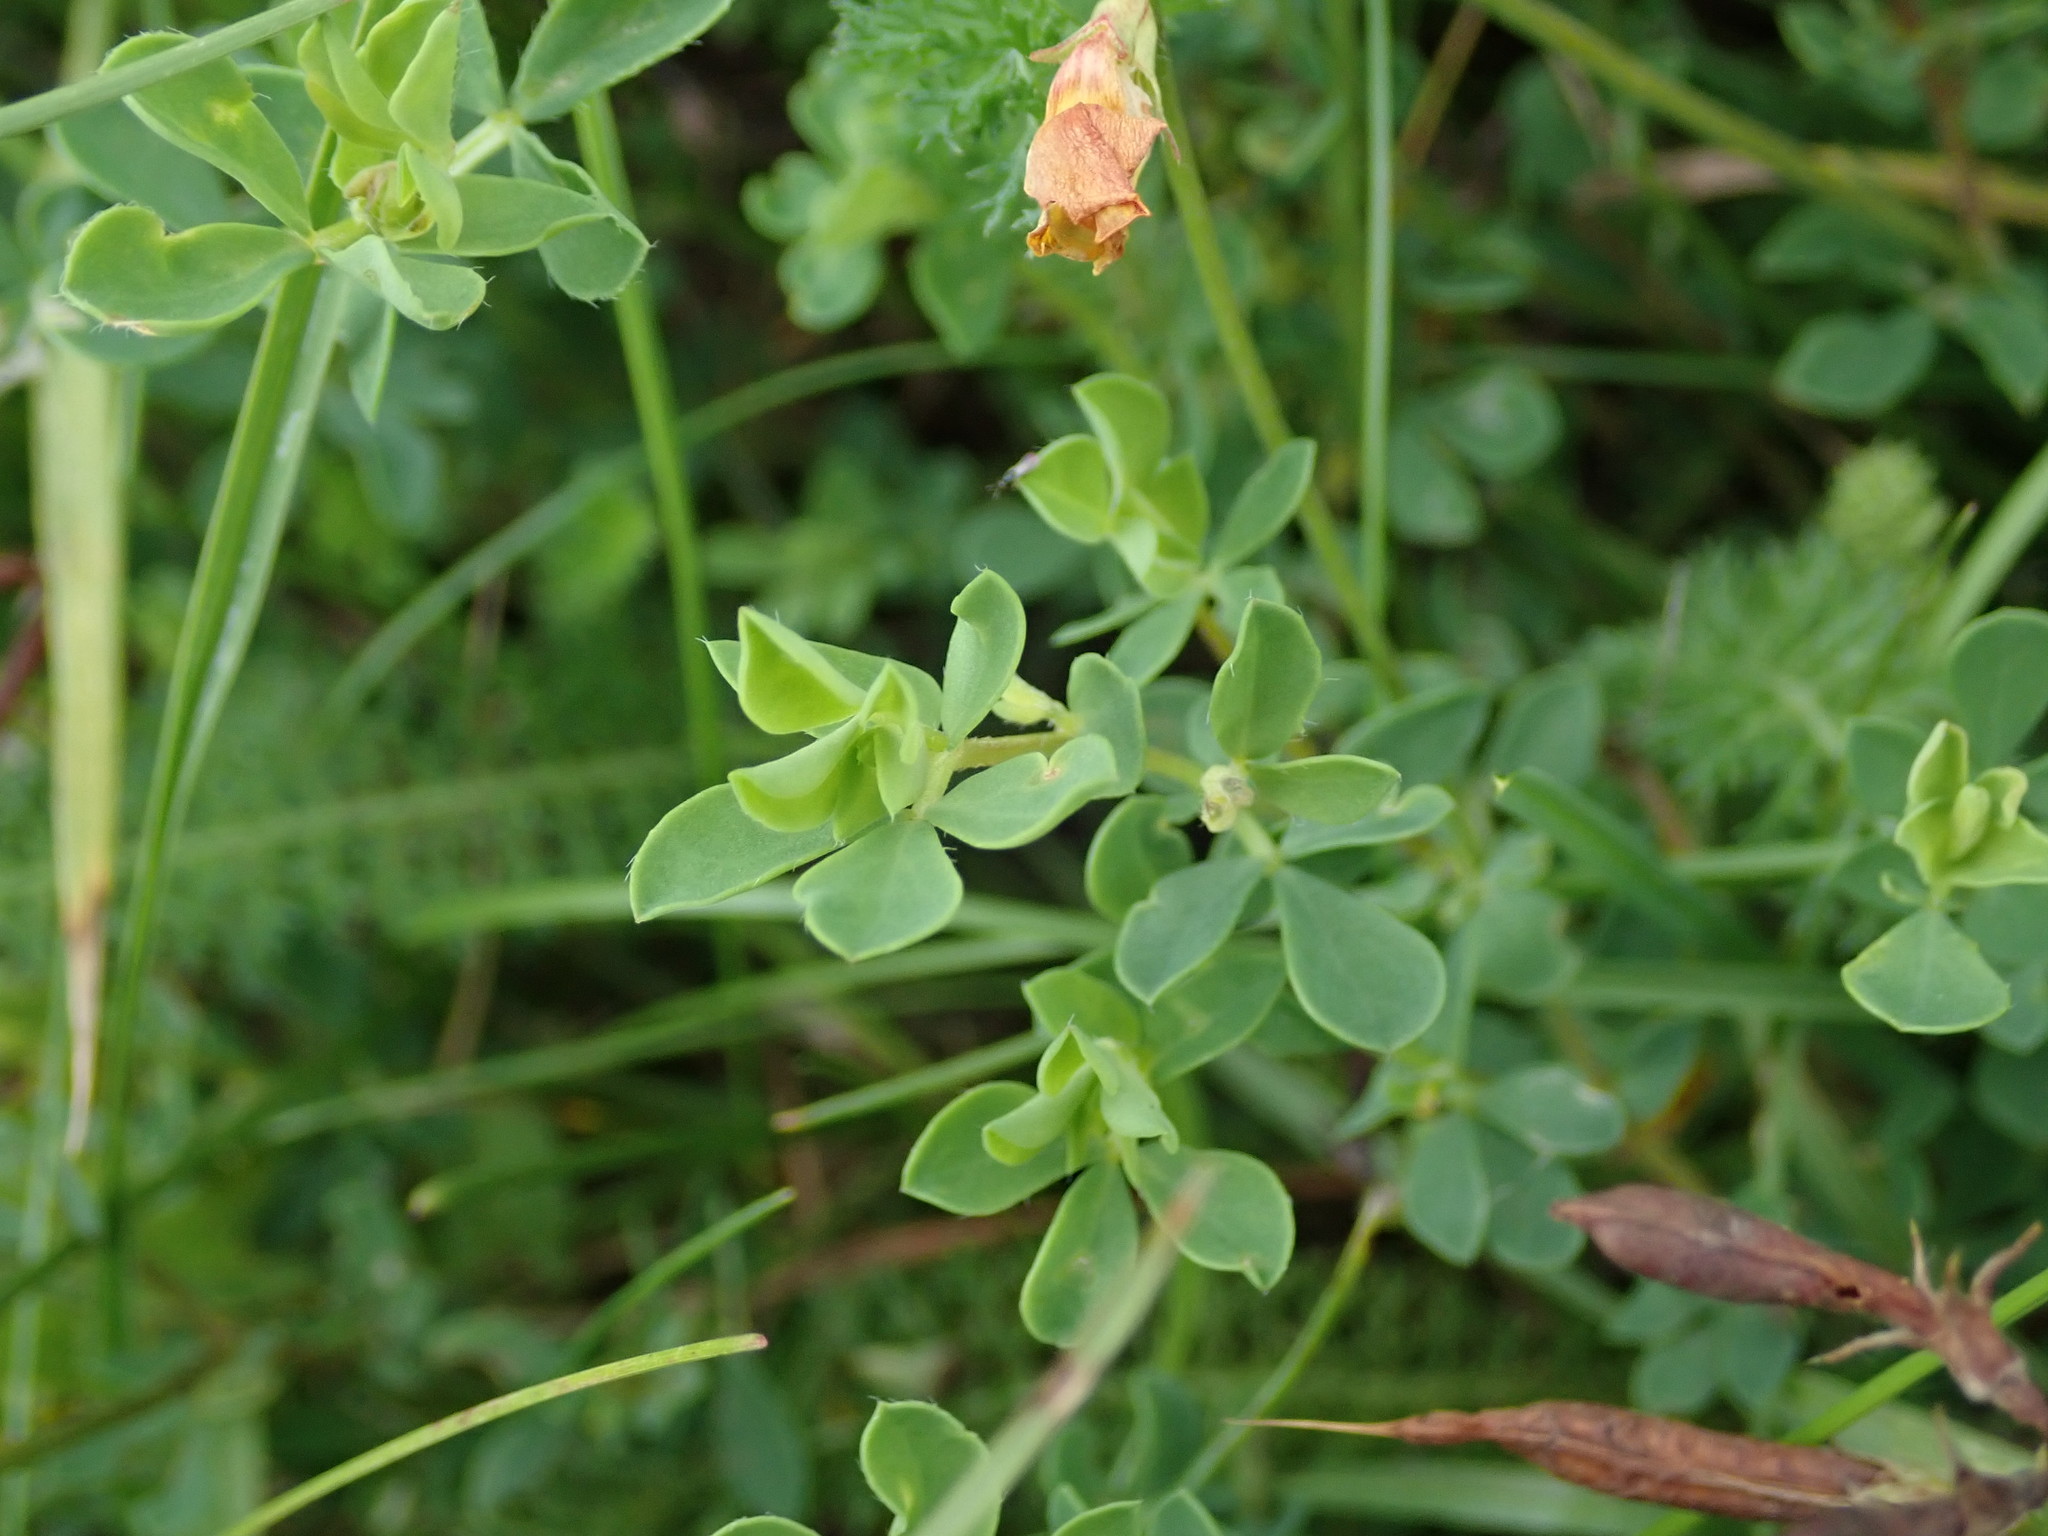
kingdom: Plantae
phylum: Tracheophyta
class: Magnoliopsida
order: Fabales
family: Fabaceae
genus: Lotus
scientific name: Lotus corniculatus
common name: Common bird's-foot-trefoil
